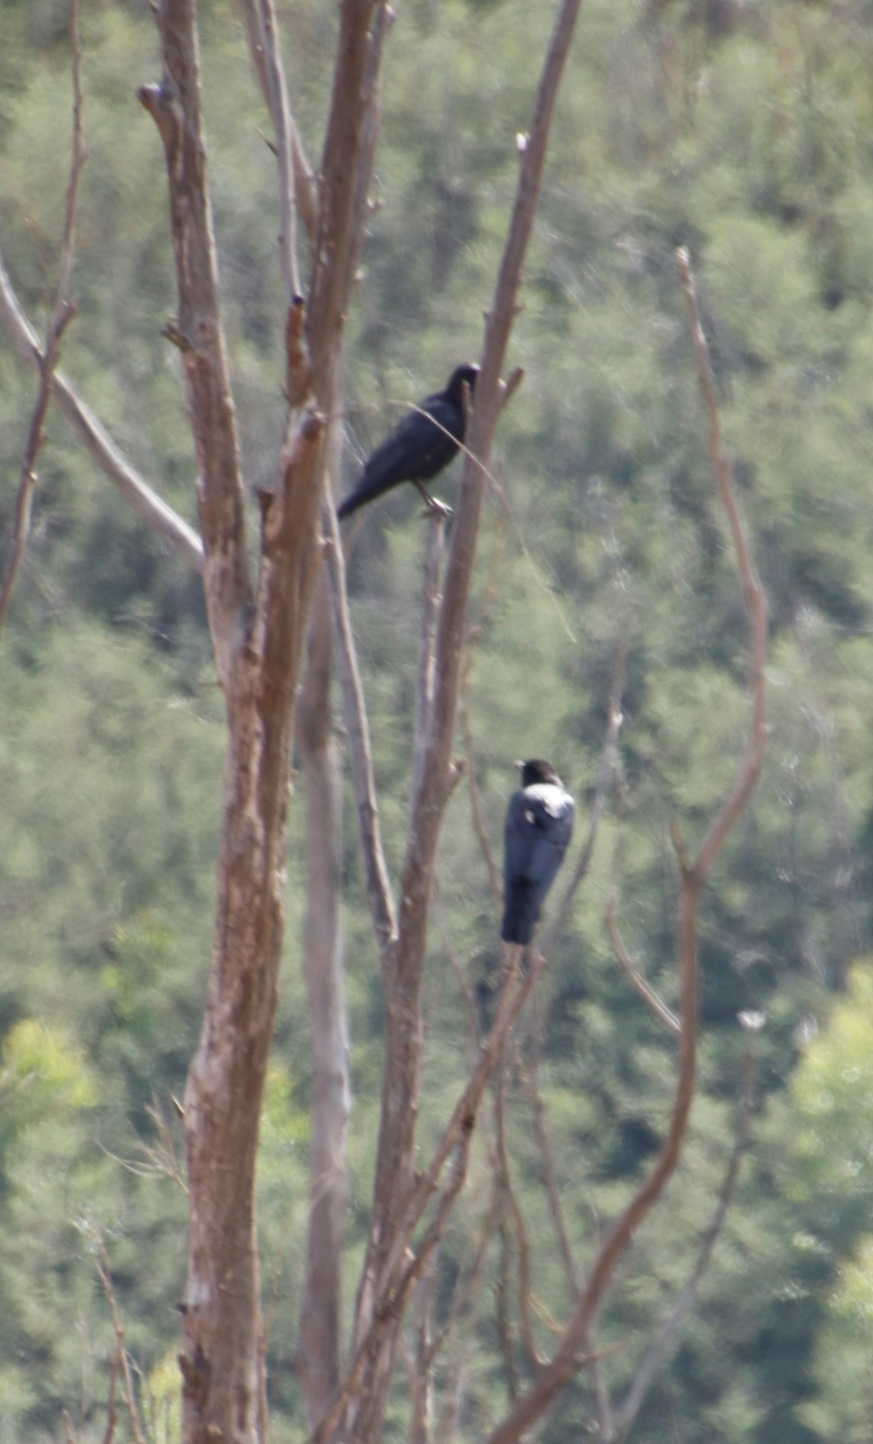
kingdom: Animalia
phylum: Chordata
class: Aves
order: Passeriformes
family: Corvidae
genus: Corvus
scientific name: Corvus capensis
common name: Cape crow
